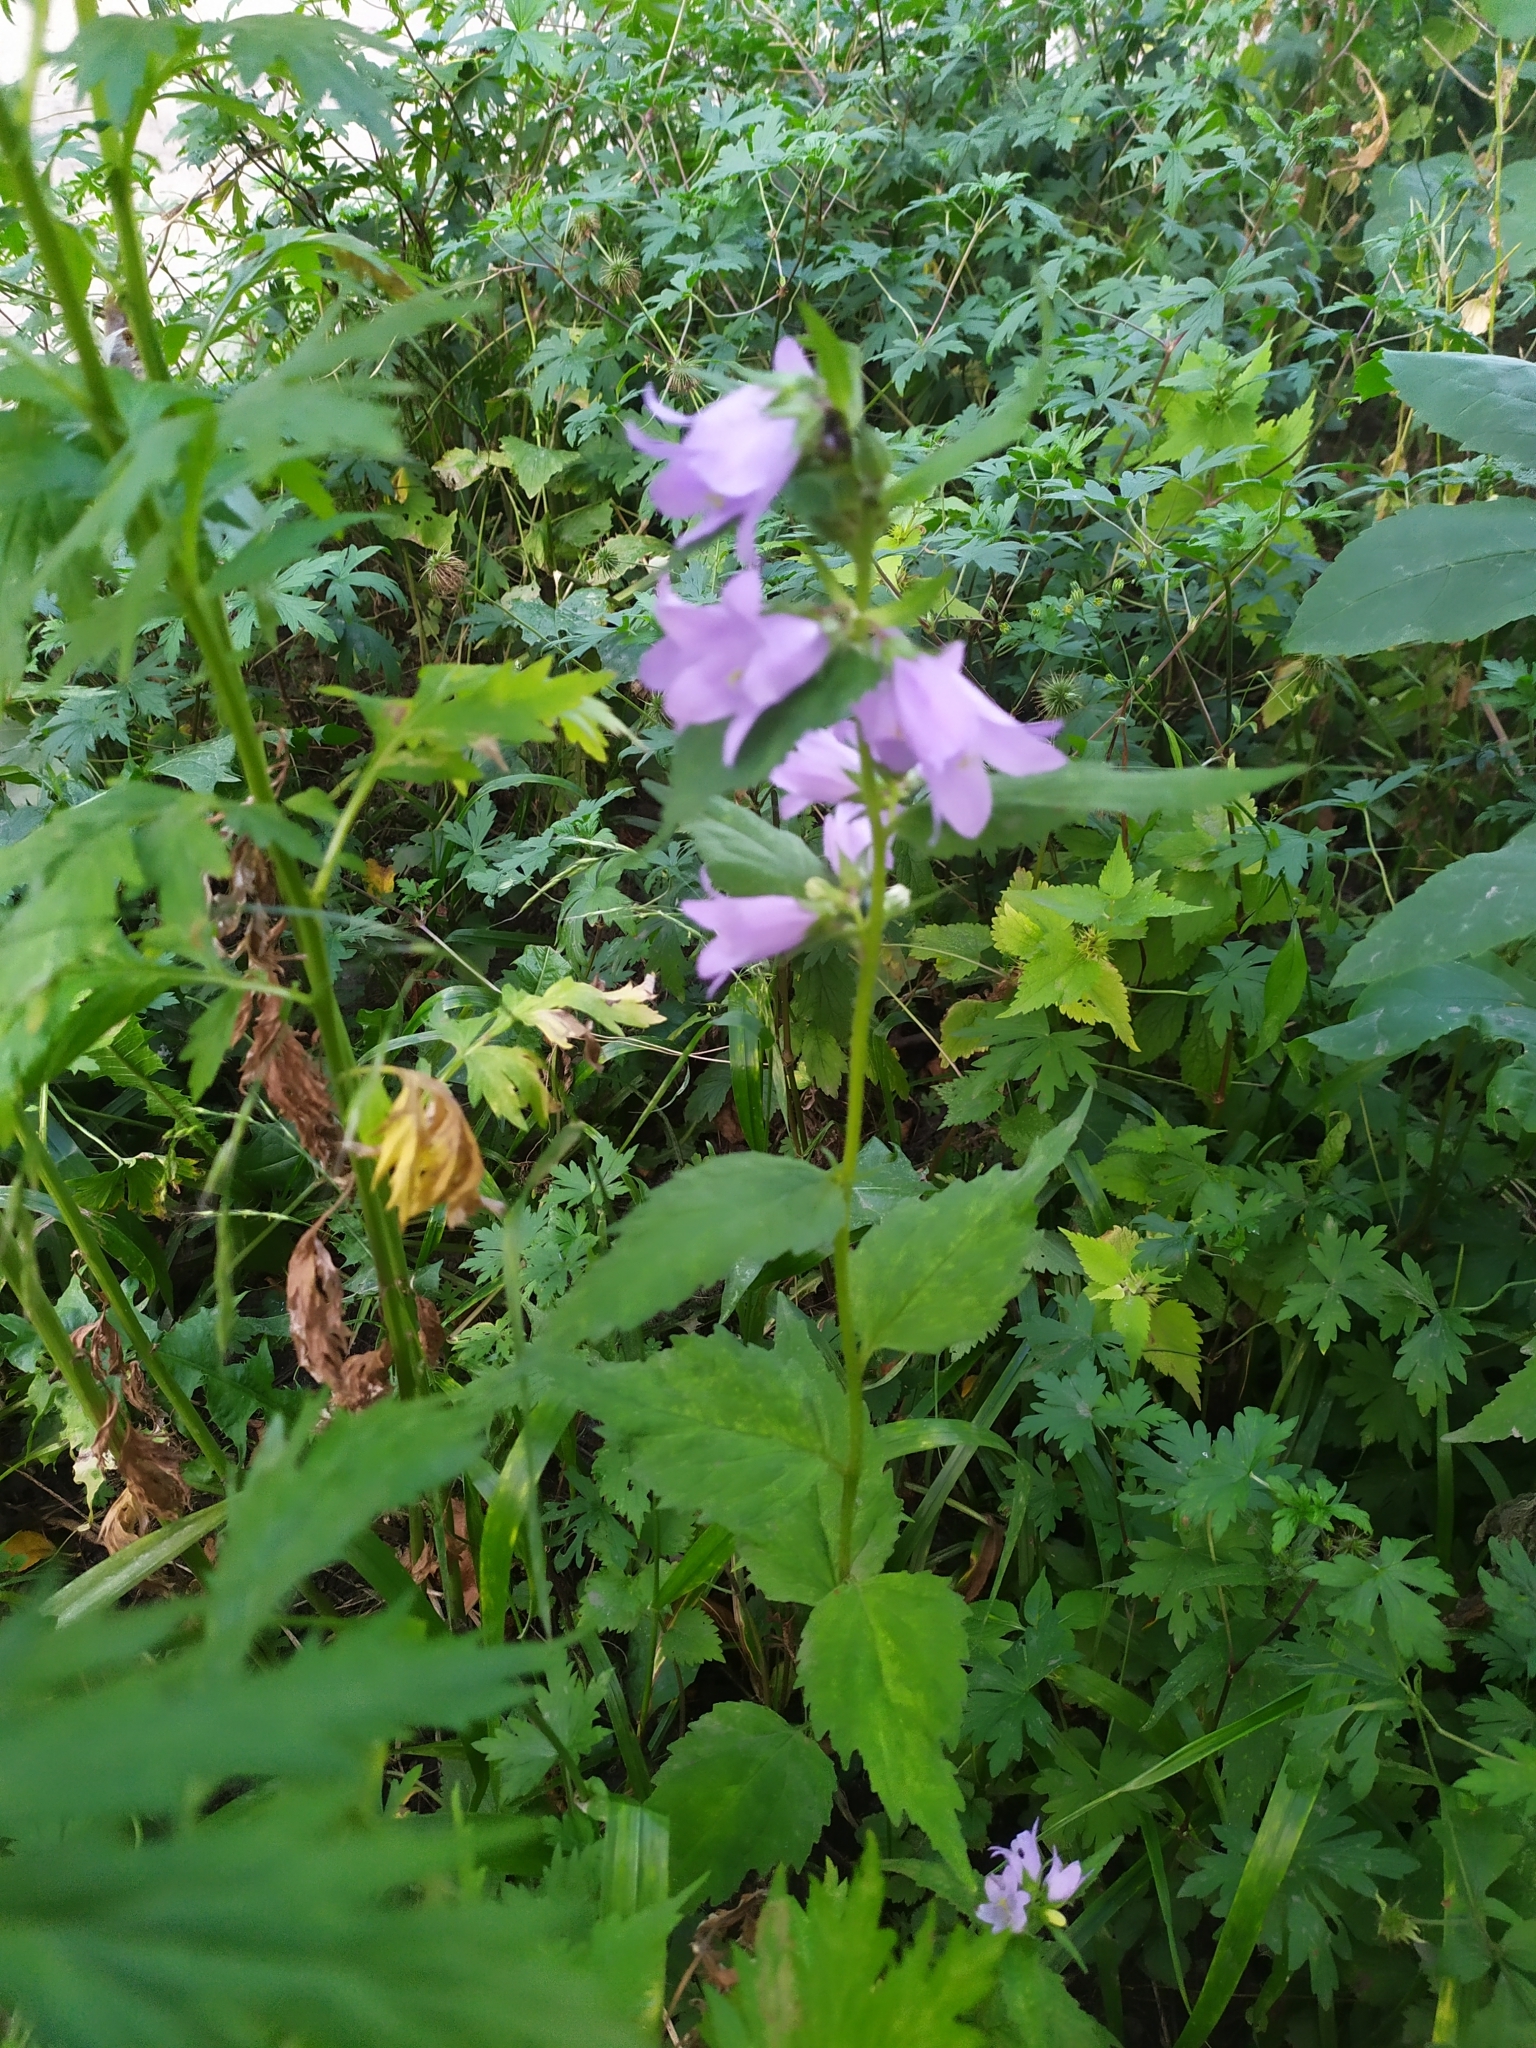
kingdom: Plantae
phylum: Tracheophyta
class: Magnoliopsida
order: Asterales
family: Campanulaceae
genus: Campanula
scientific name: Campanula trachelium
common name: Nettle-leaved bellflower
